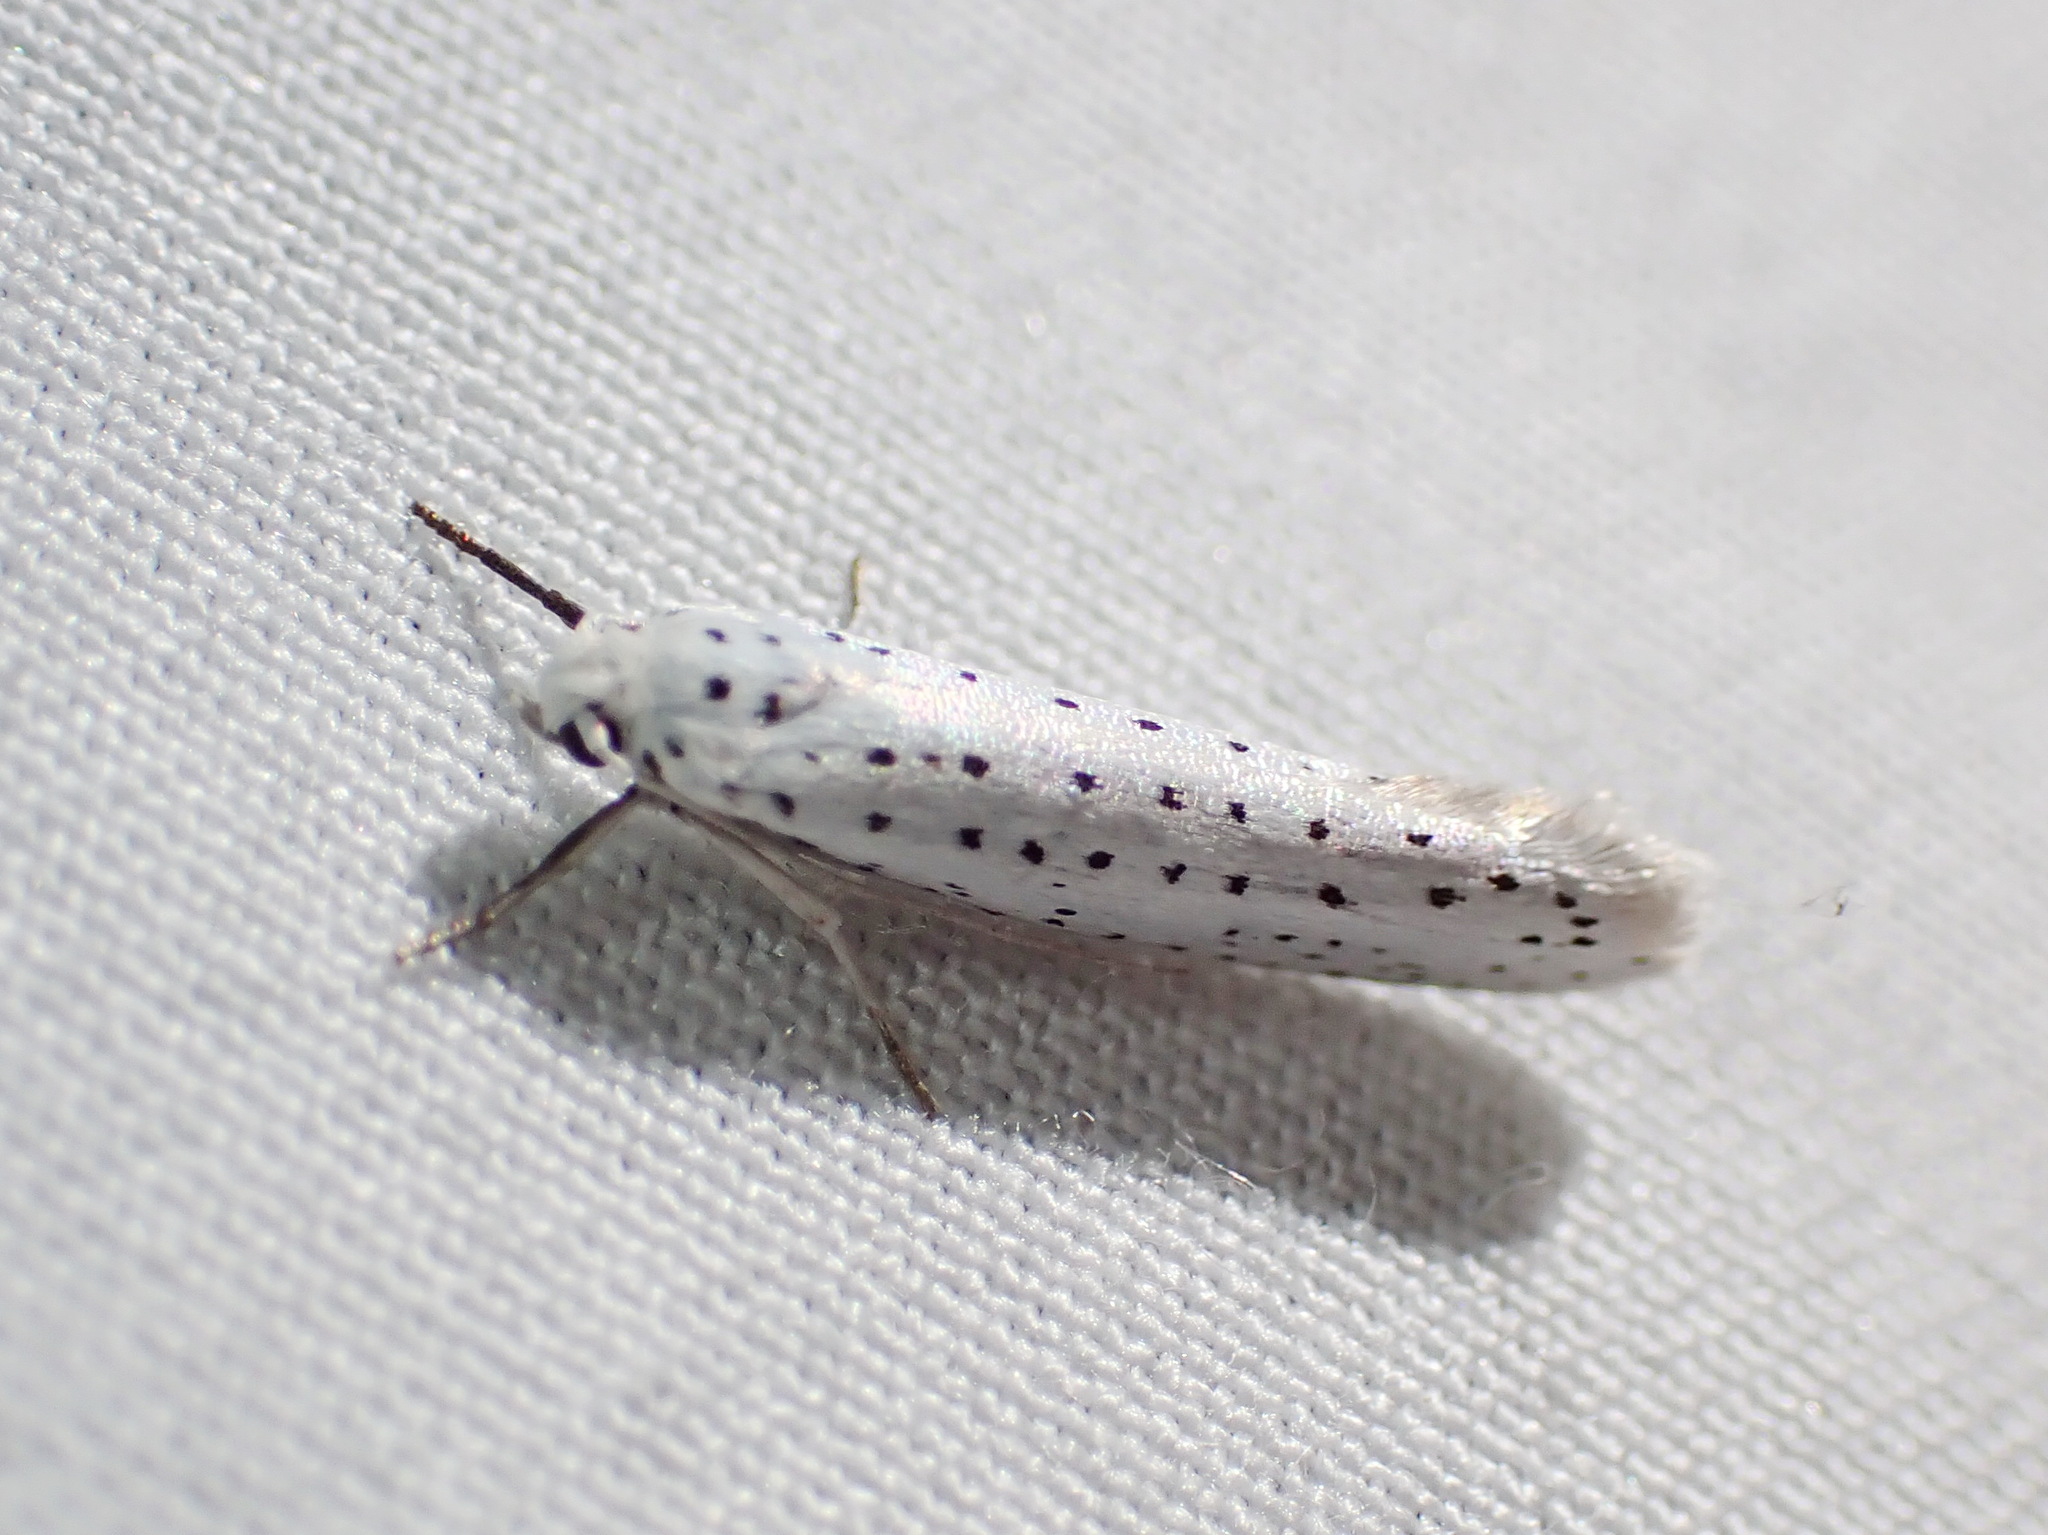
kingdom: Animalia
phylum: Arthropoda
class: Insecta
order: Lepidoptera
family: Yponomeutidae
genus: Yponomeuta
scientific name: Yponomeuta multipunctella
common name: American ermine moth
